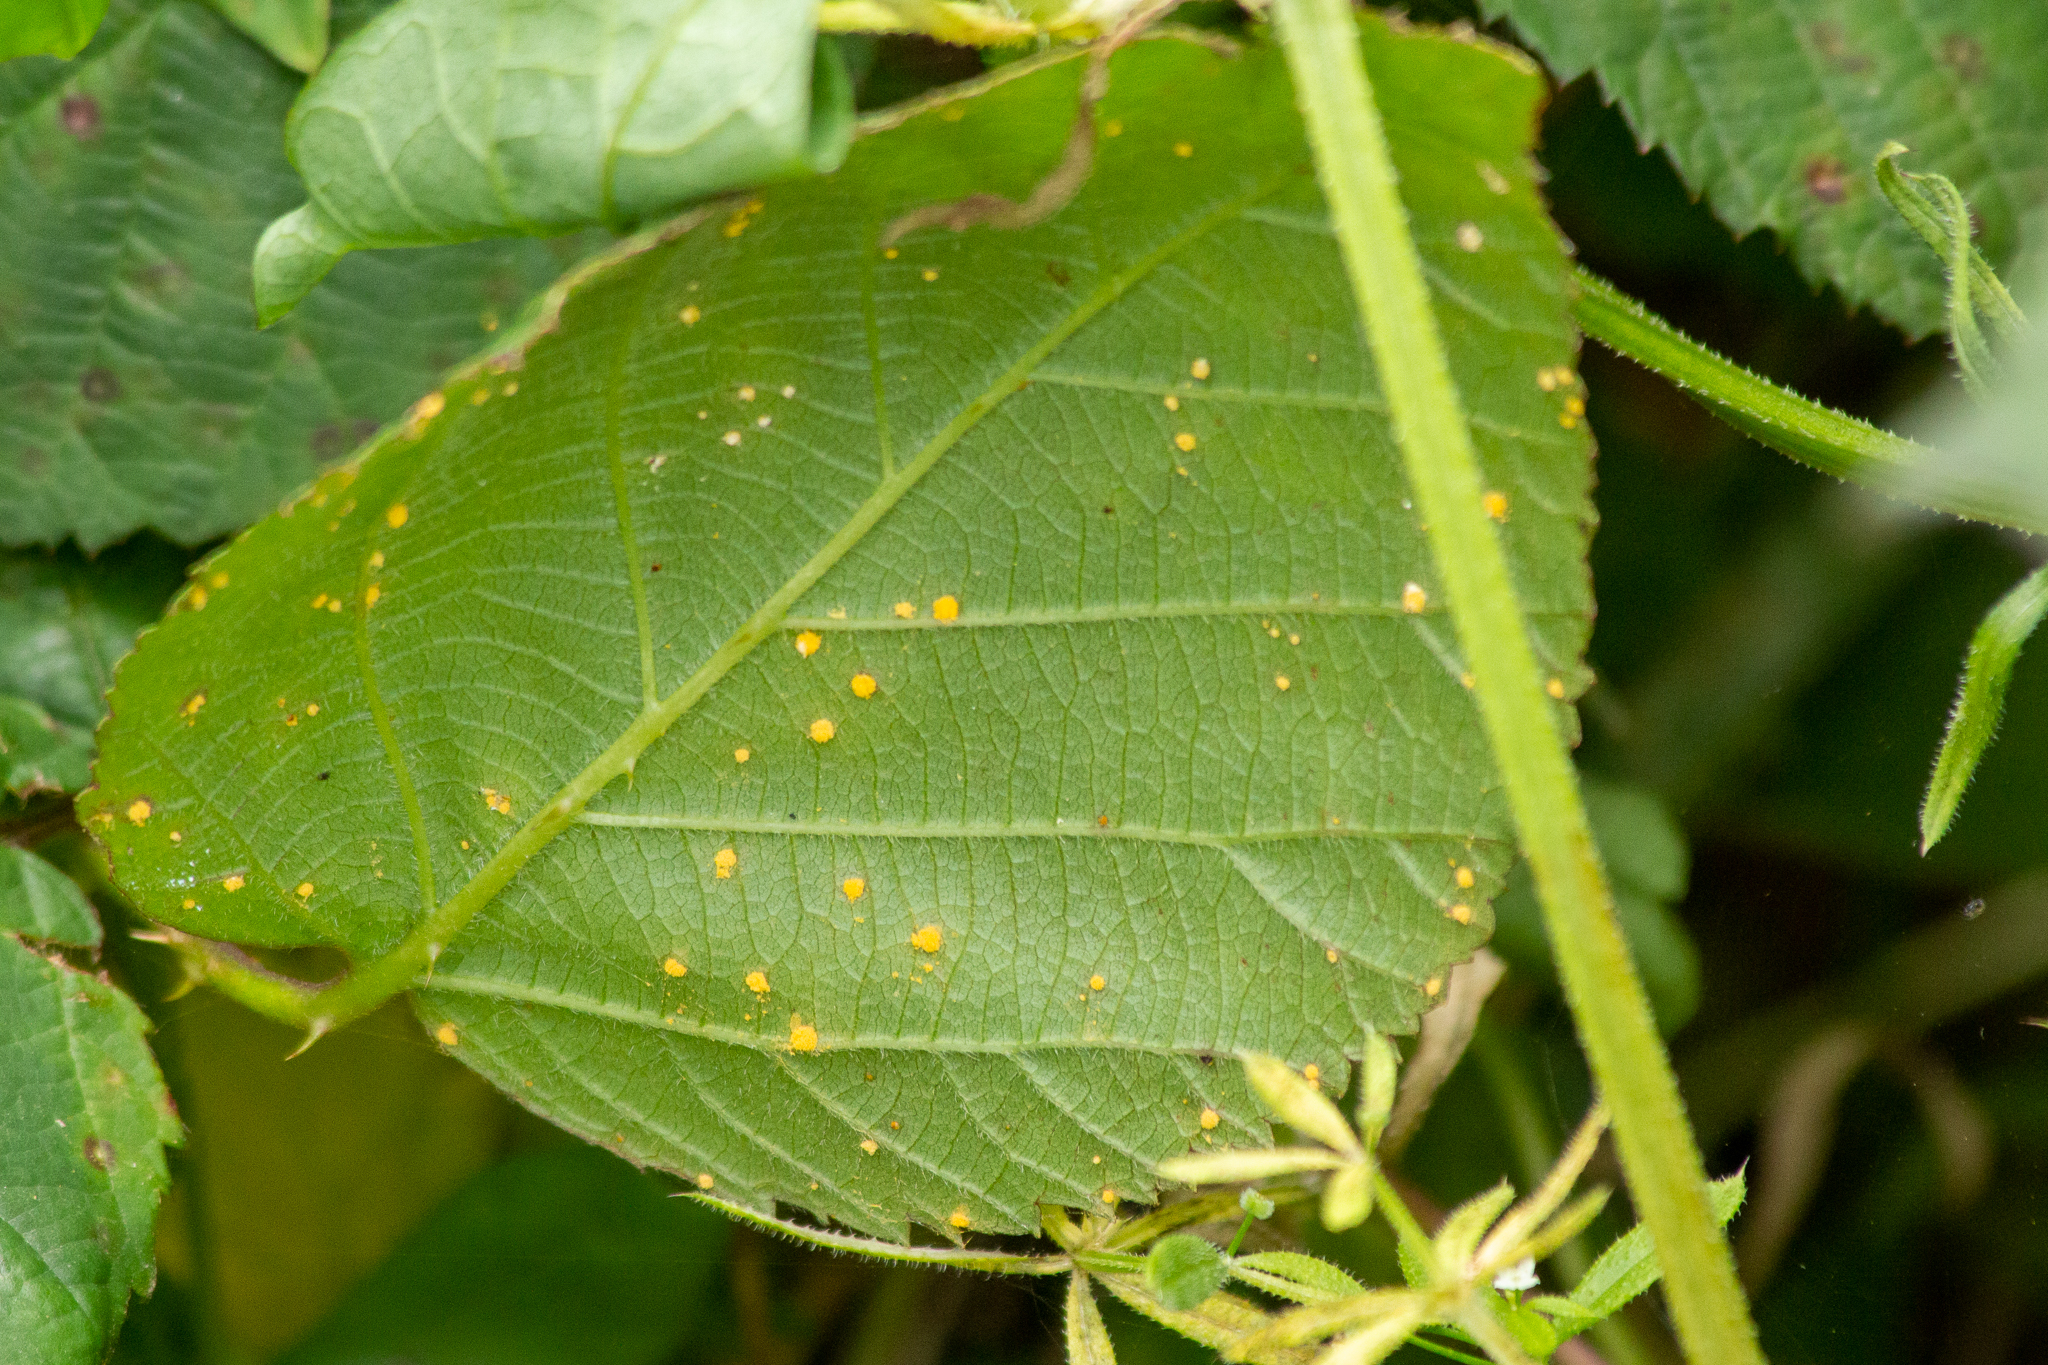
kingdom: Fungi
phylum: Basidiomycota
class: Pucciniomycetes
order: Pucciniales
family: Phragmidiaceae
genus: Phragmidium
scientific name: Phragmidium violaceum
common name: Violet bramble rust
